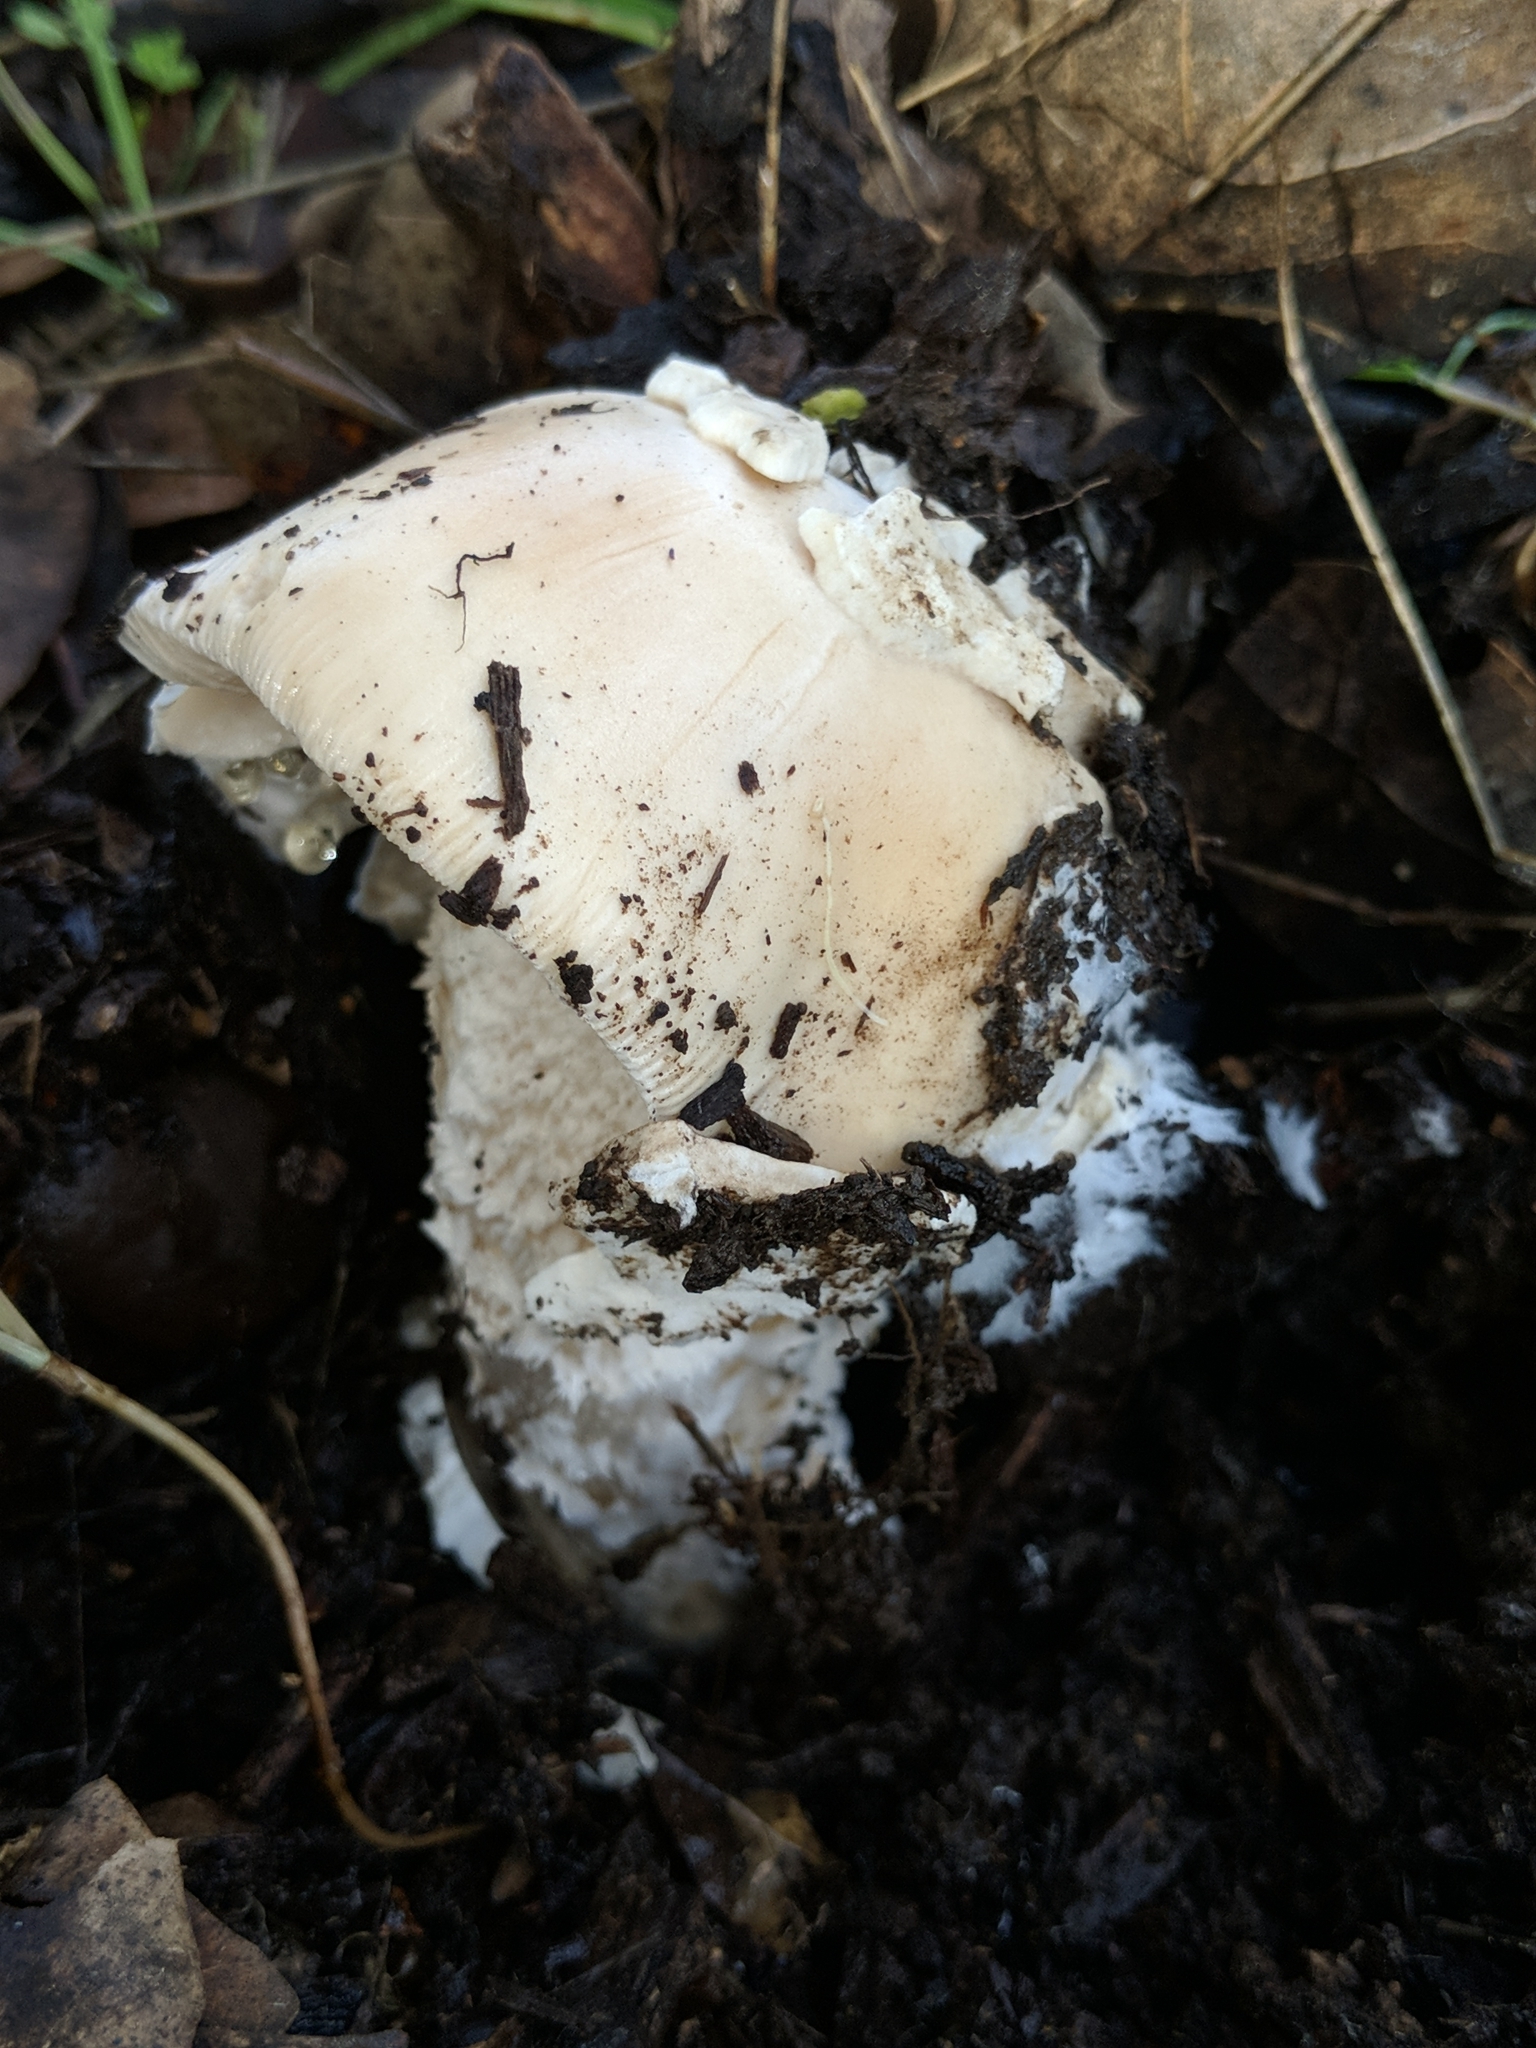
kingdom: Fungi
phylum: Basidiomycota
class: Agaricomycetes
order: Agaricales
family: Amanitaceae
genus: Amanita
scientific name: Amanita velosa
